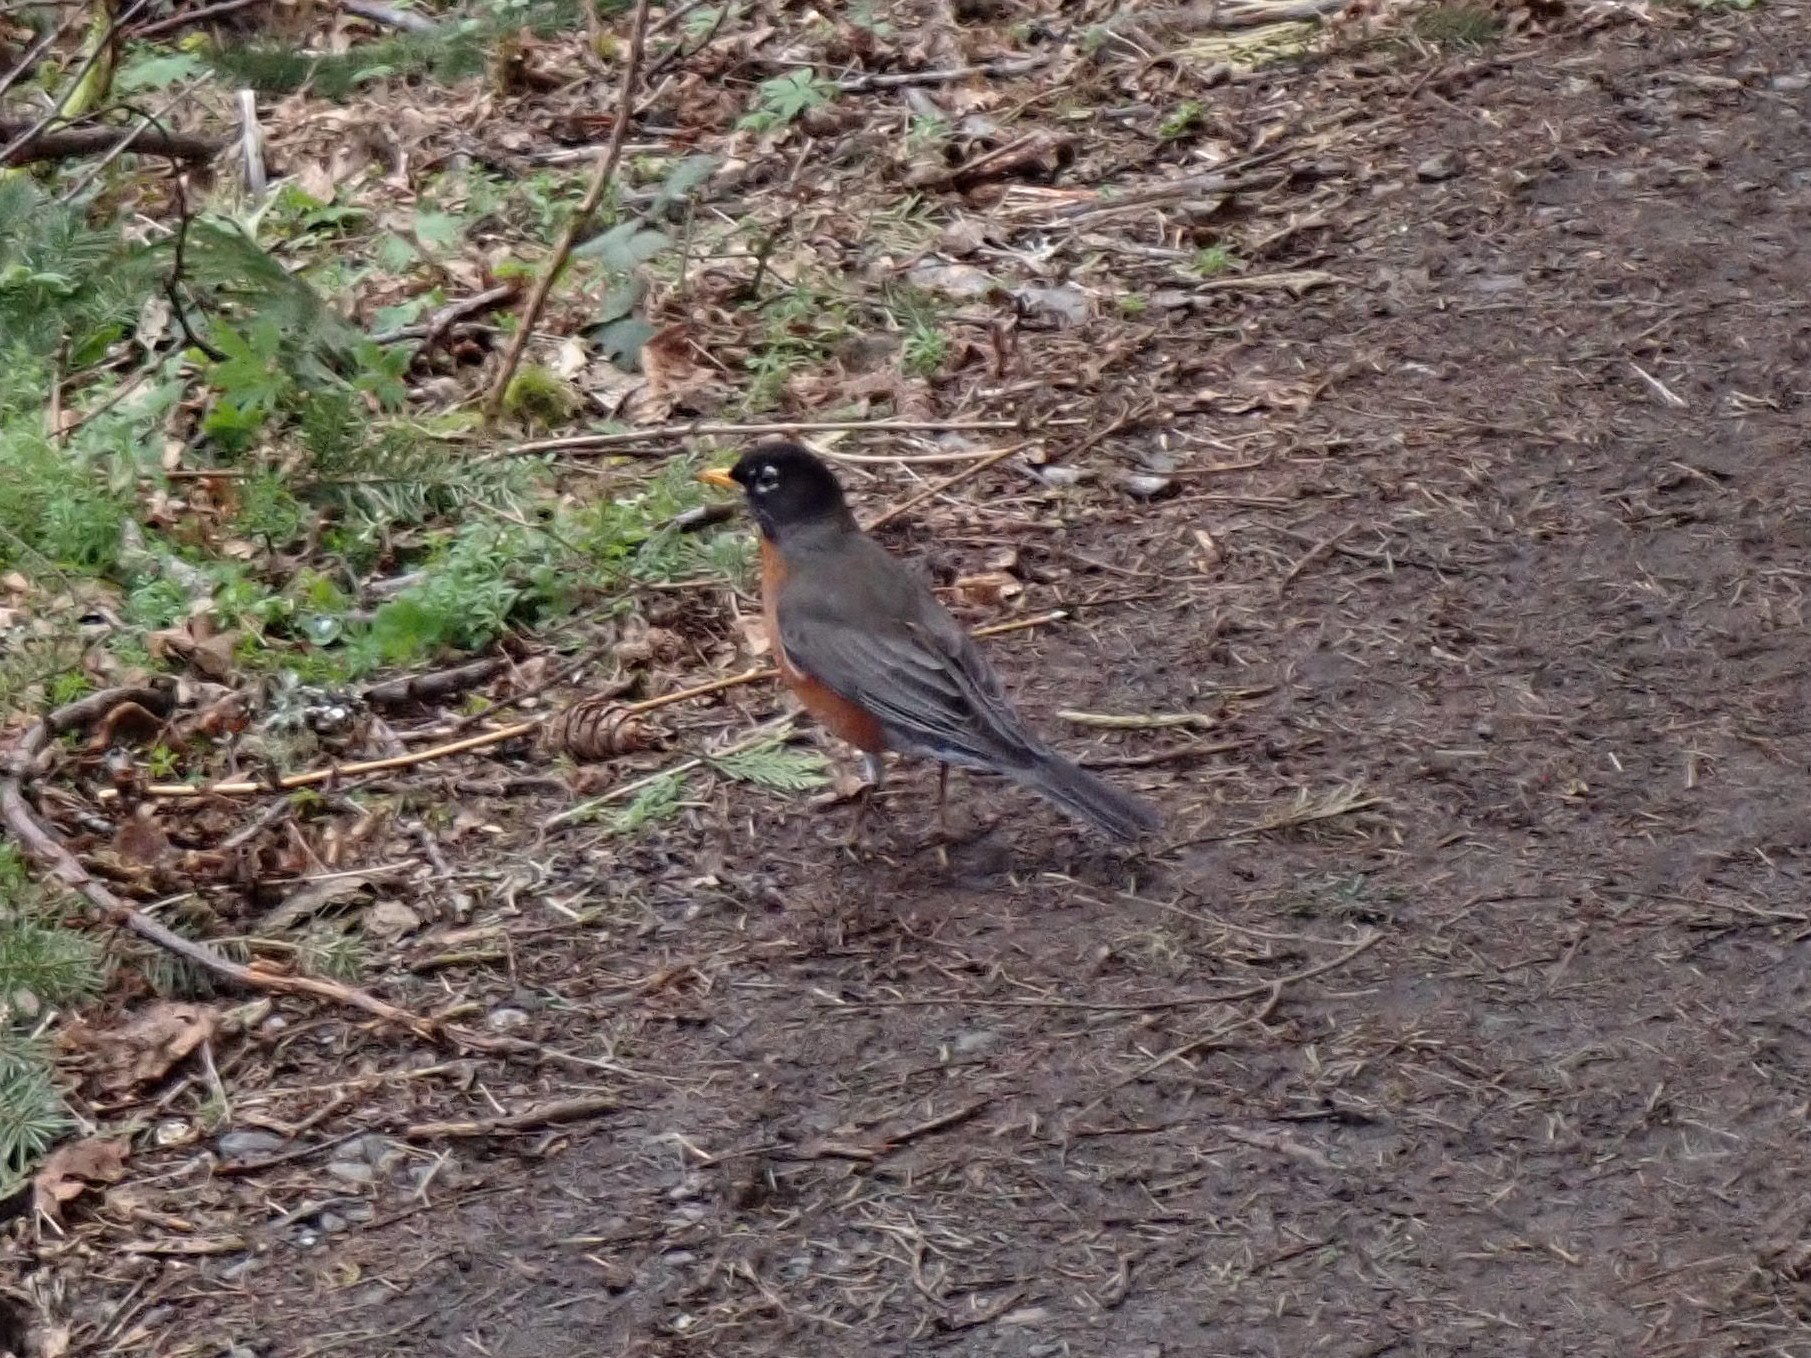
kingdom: Animalia
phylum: Chordata
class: Aves
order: Passeriformes
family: Turdidae
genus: Turdus
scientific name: Turdus migratorius
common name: American robin
